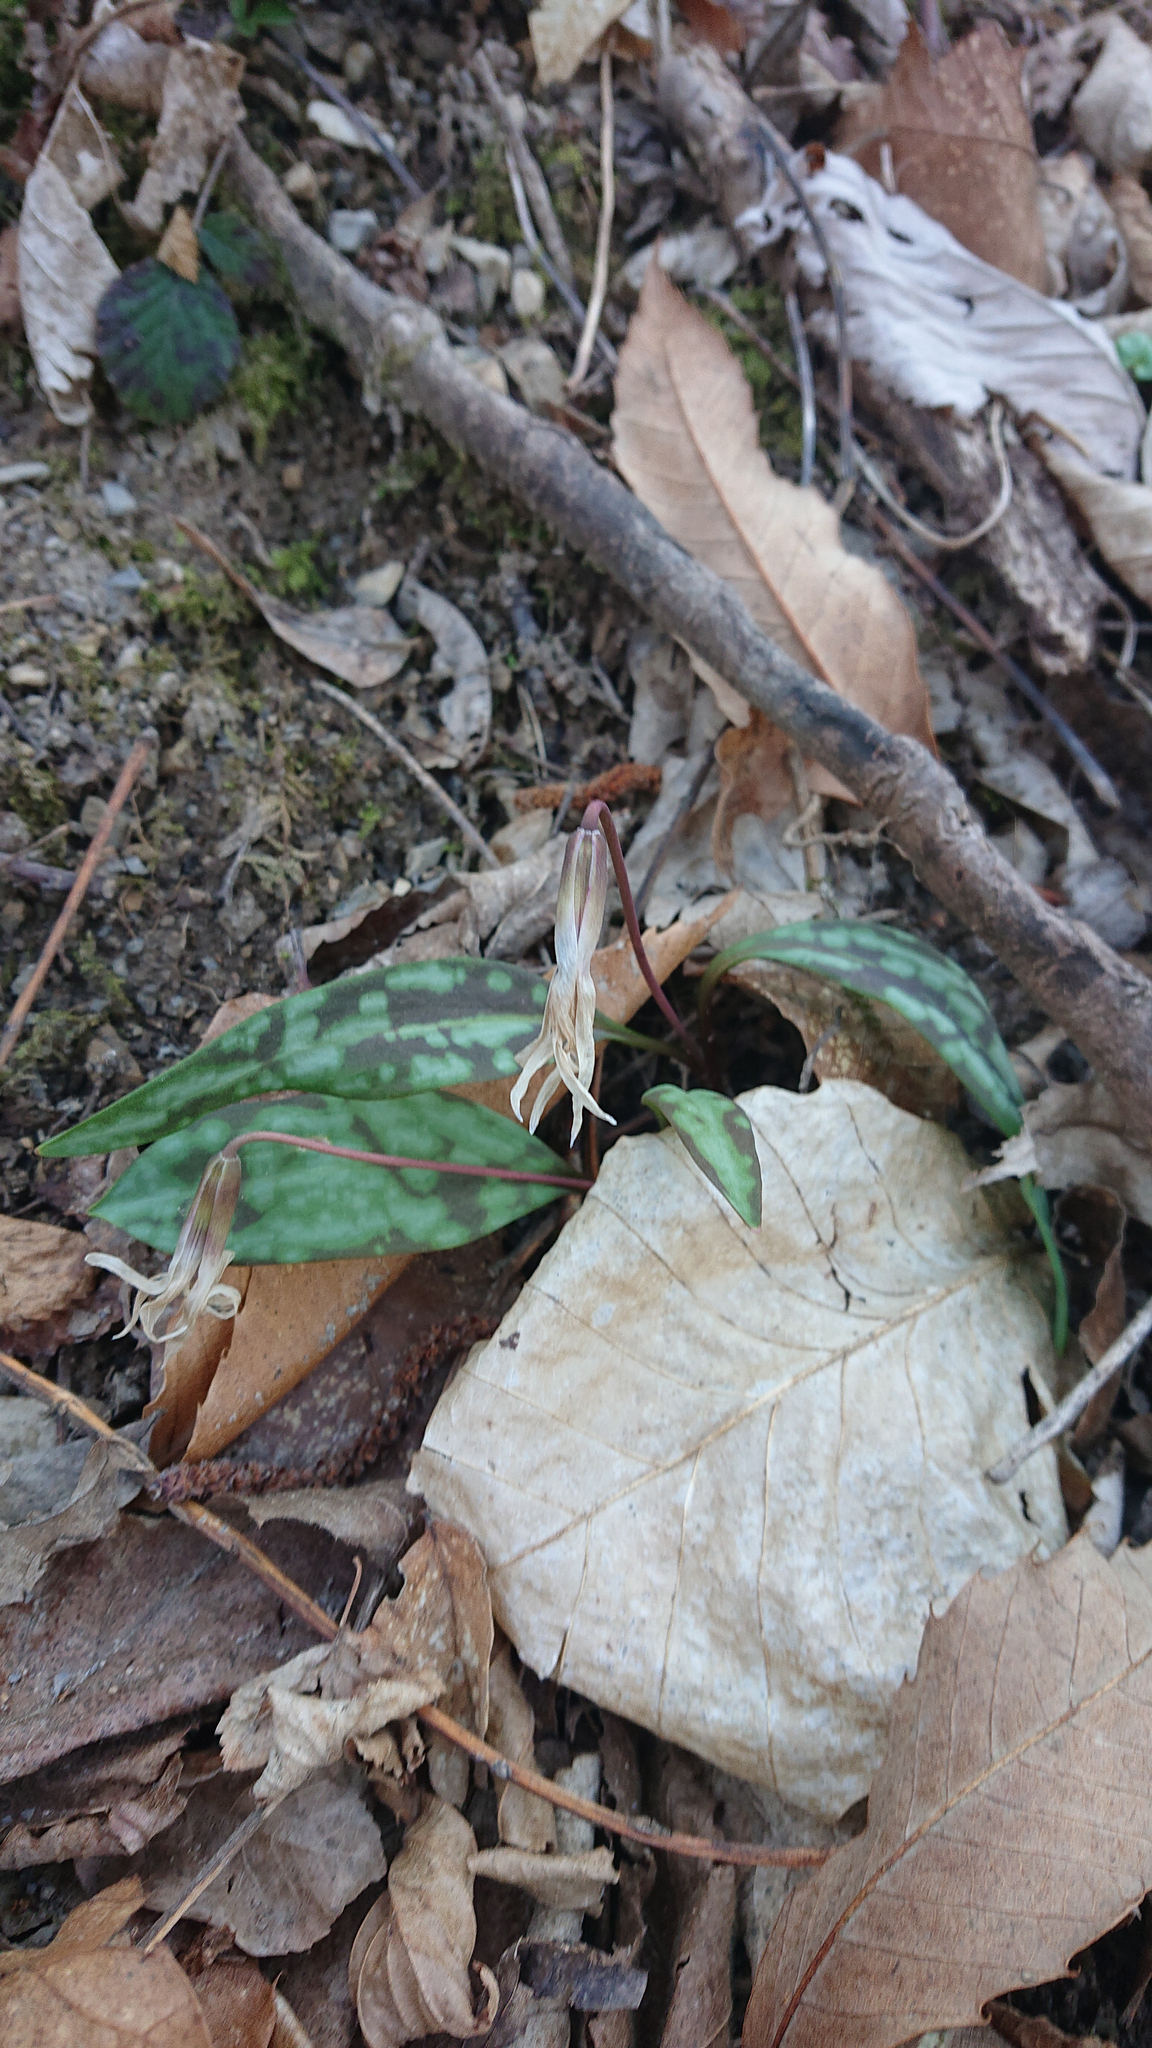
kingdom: Plantae
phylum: Tracheophyta
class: Liliopsida
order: Liliales
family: Liliaceae
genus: Erythronium
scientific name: Erythronium dens-canis
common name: Dog's-tooth-violet
